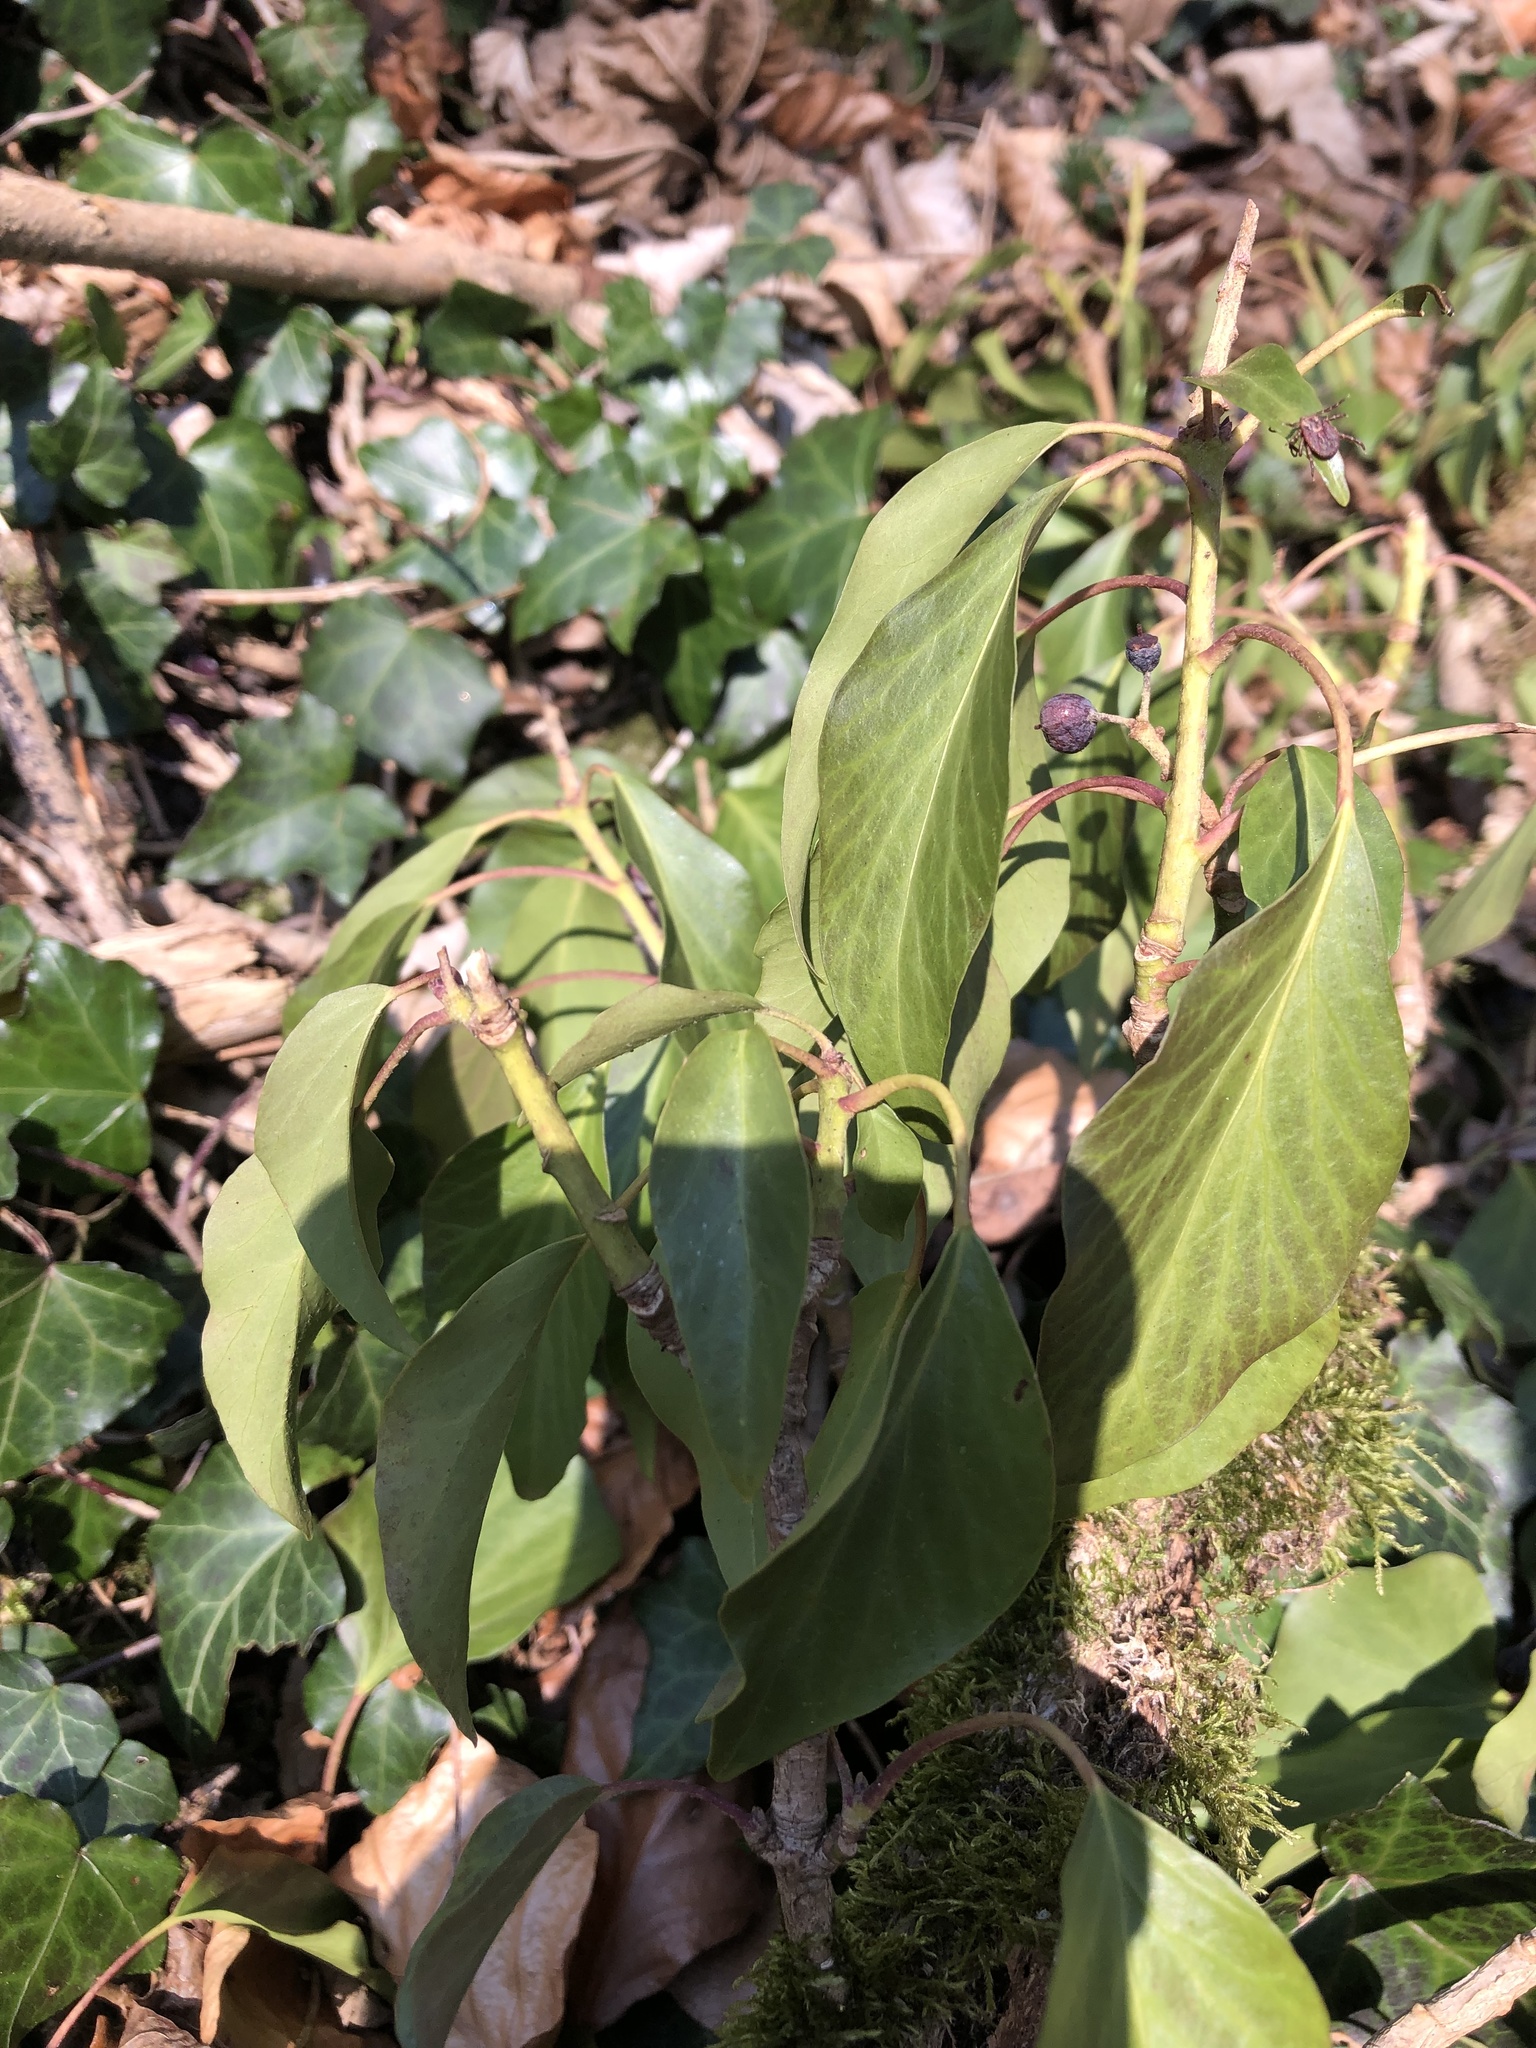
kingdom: Plantae
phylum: Tracheophyta
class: Magnoliopsida
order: Apiales
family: Araliaceae
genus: Hedera
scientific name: Hedera helix
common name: Ivy
